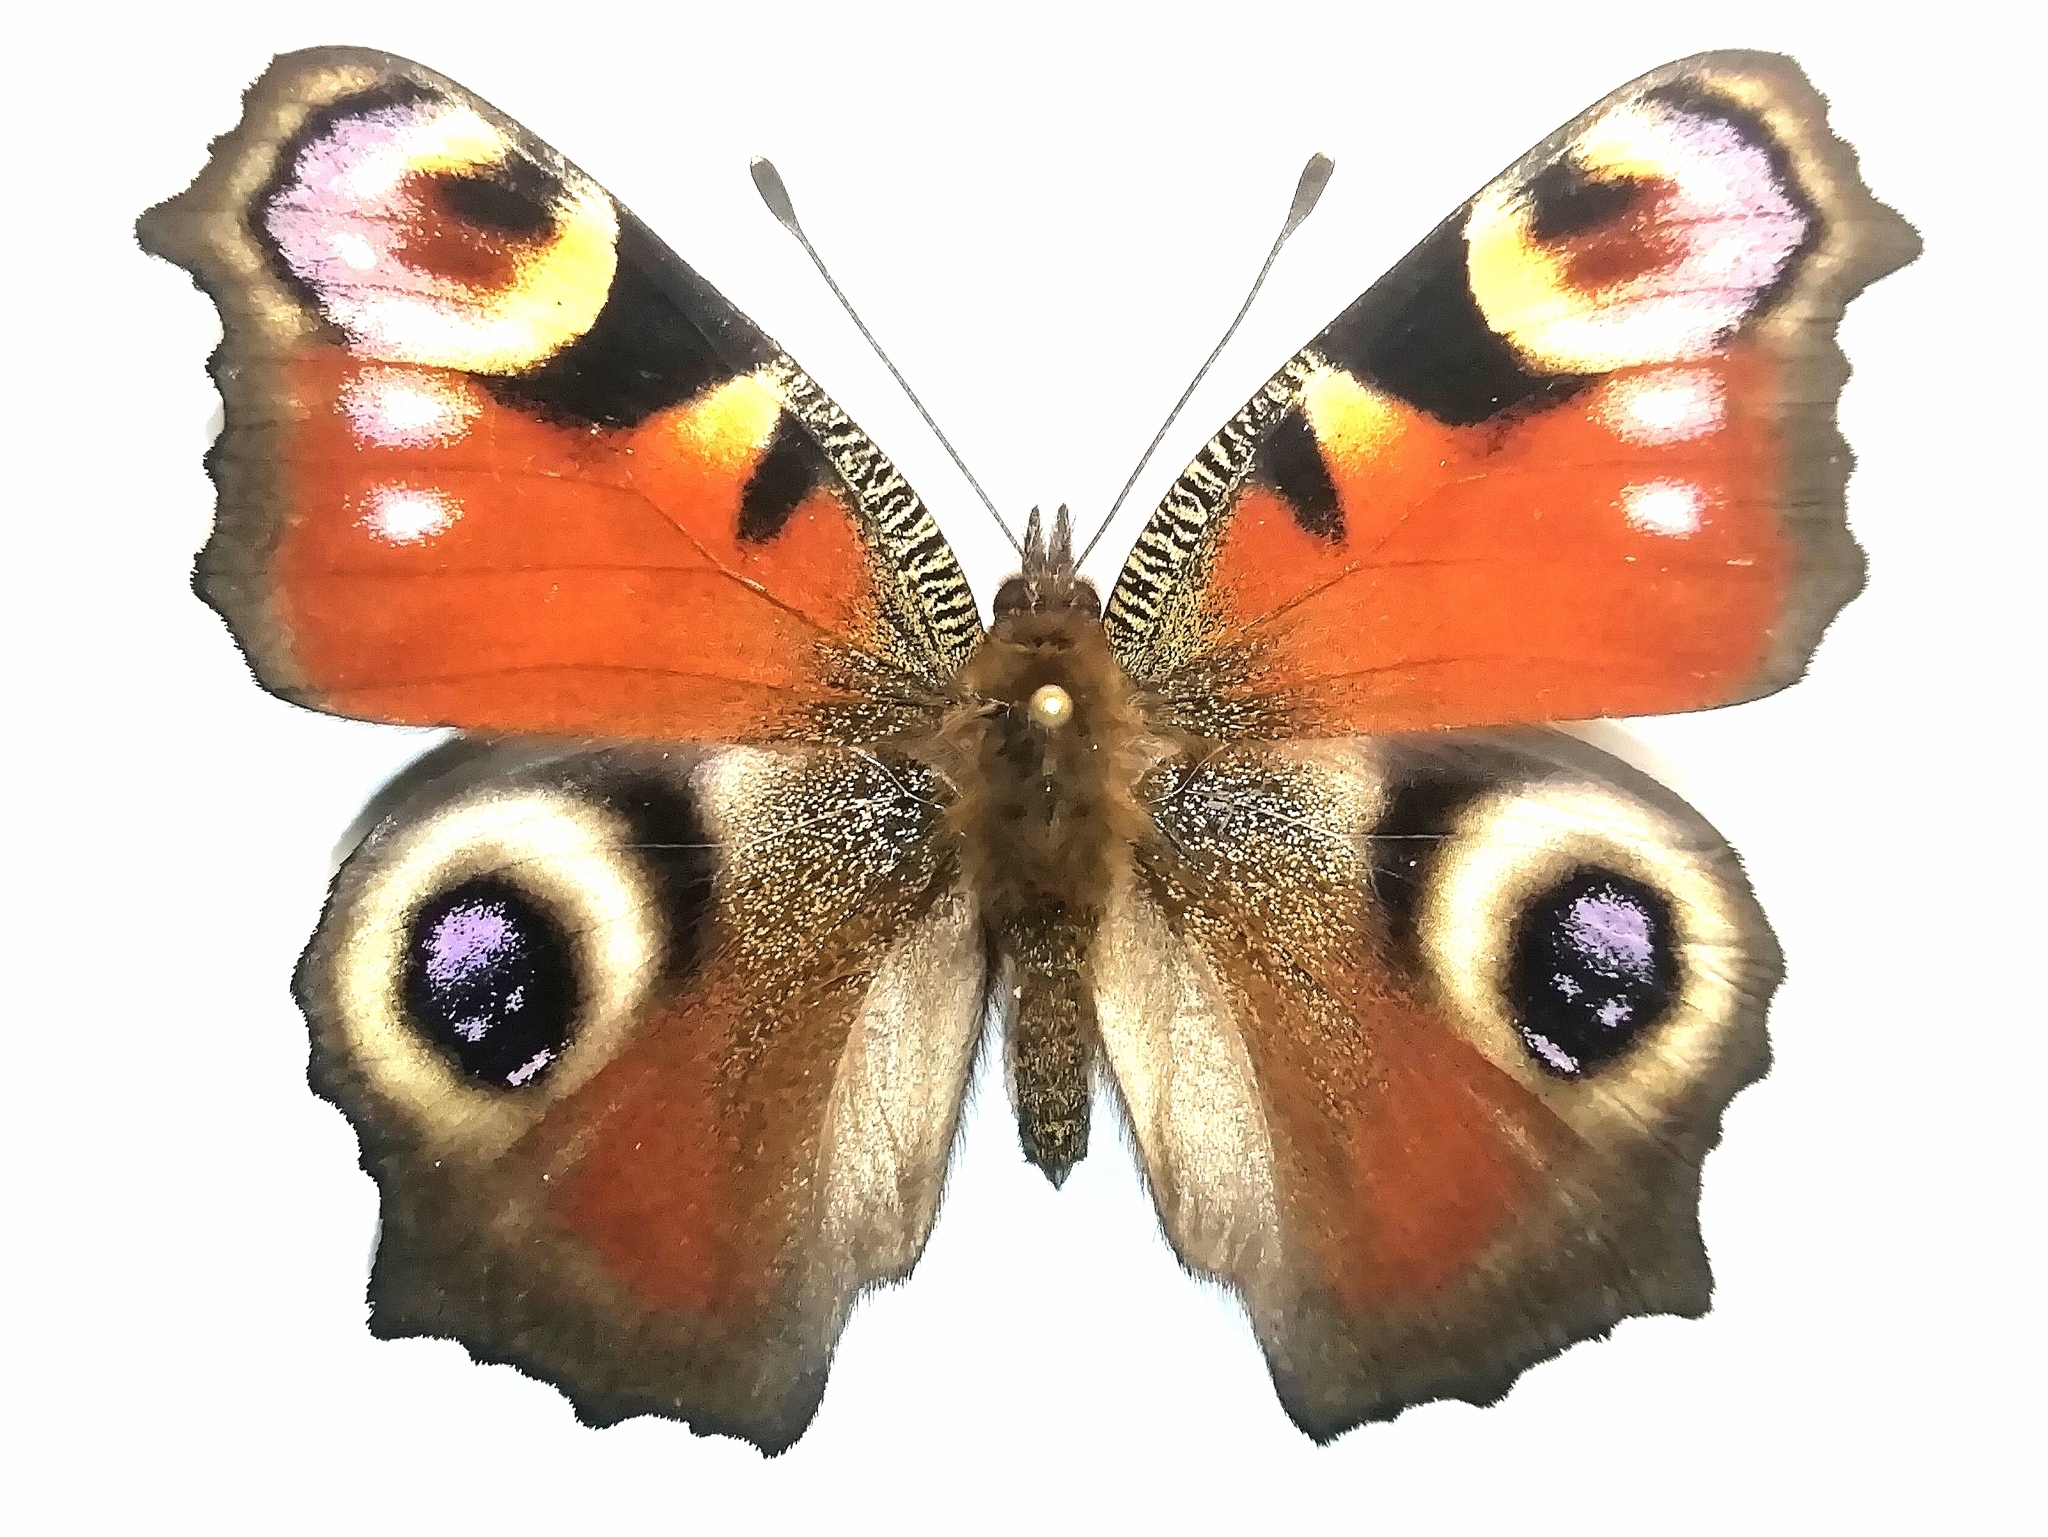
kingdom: Animalia
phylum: Arthropoda
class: Insecta
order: Lepidoptera
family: Nymphalidae
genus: Aglais
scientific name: Aglais io
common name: Peacock
